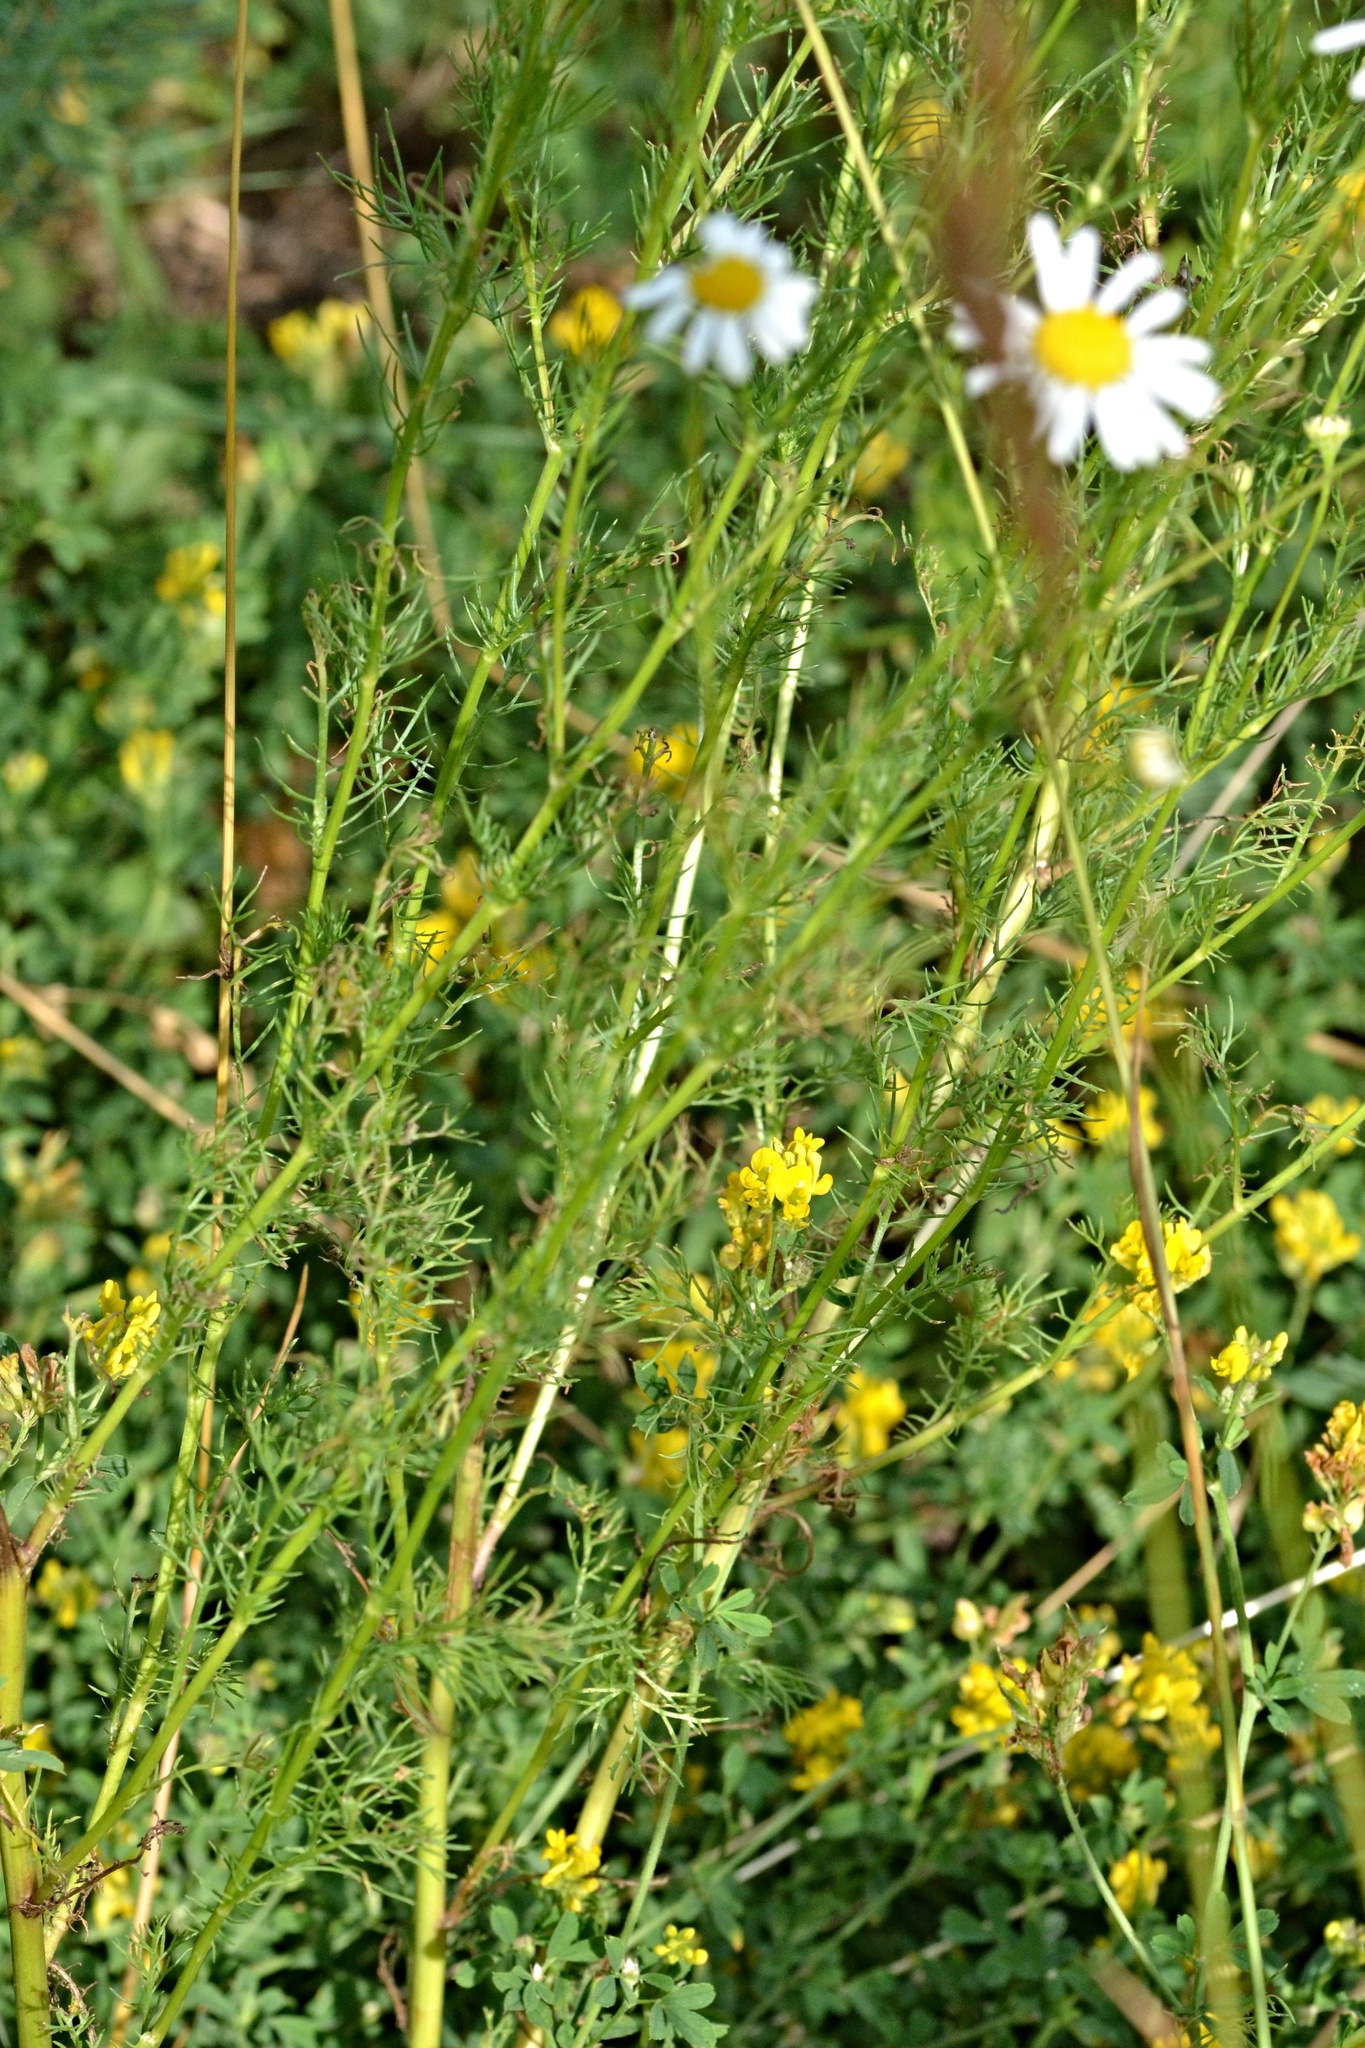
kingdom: Plantae
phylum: Tracheophyta
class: Magnoliopsida
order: Asterales
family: Asteraceae
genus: Tripleurospermum
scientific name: Tripleurospermum inodorum
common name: Scentless mayweed
